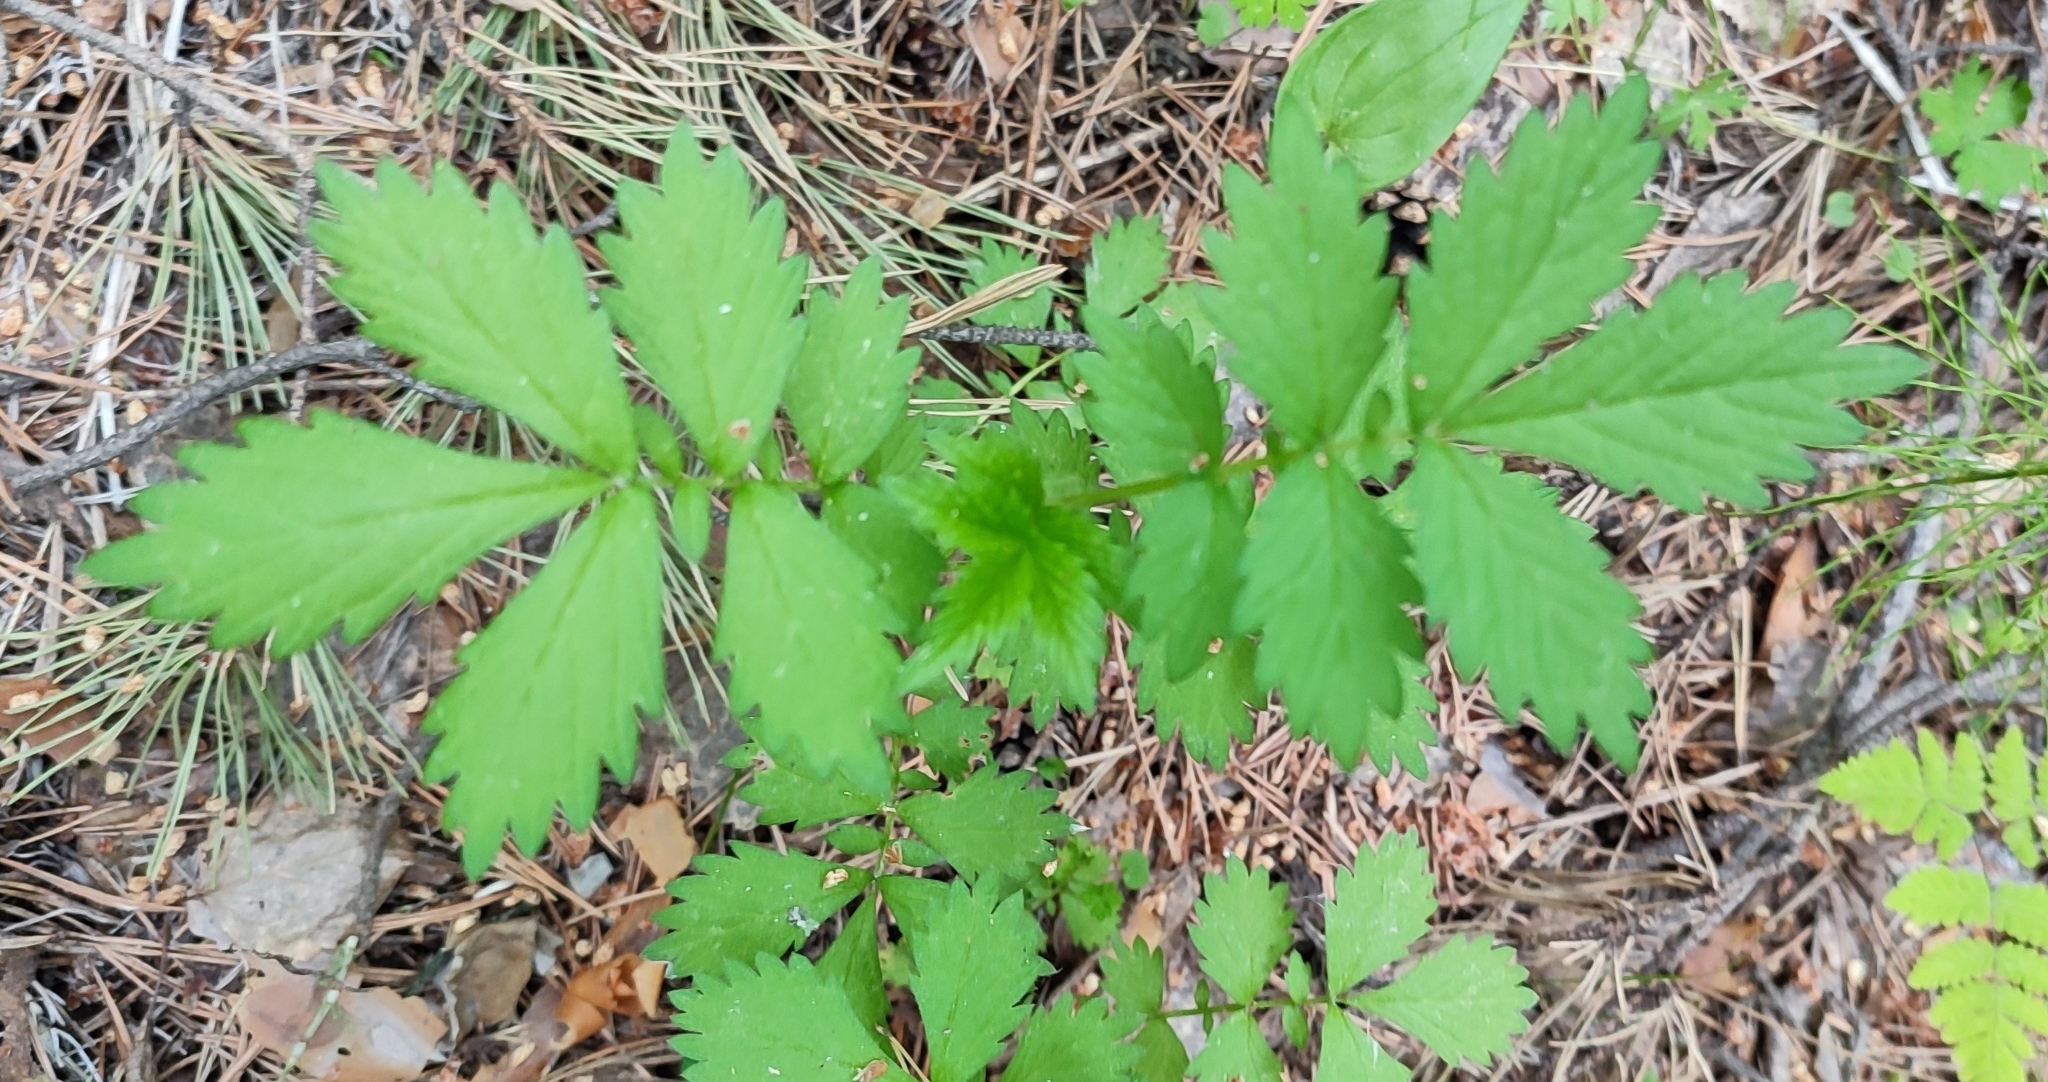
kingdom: Plantae
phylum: Tracheophyta
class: Magnoliopsida
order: Rosales
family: Rosaceae
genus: Agrimonia
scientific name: Agrimonia pilosa
